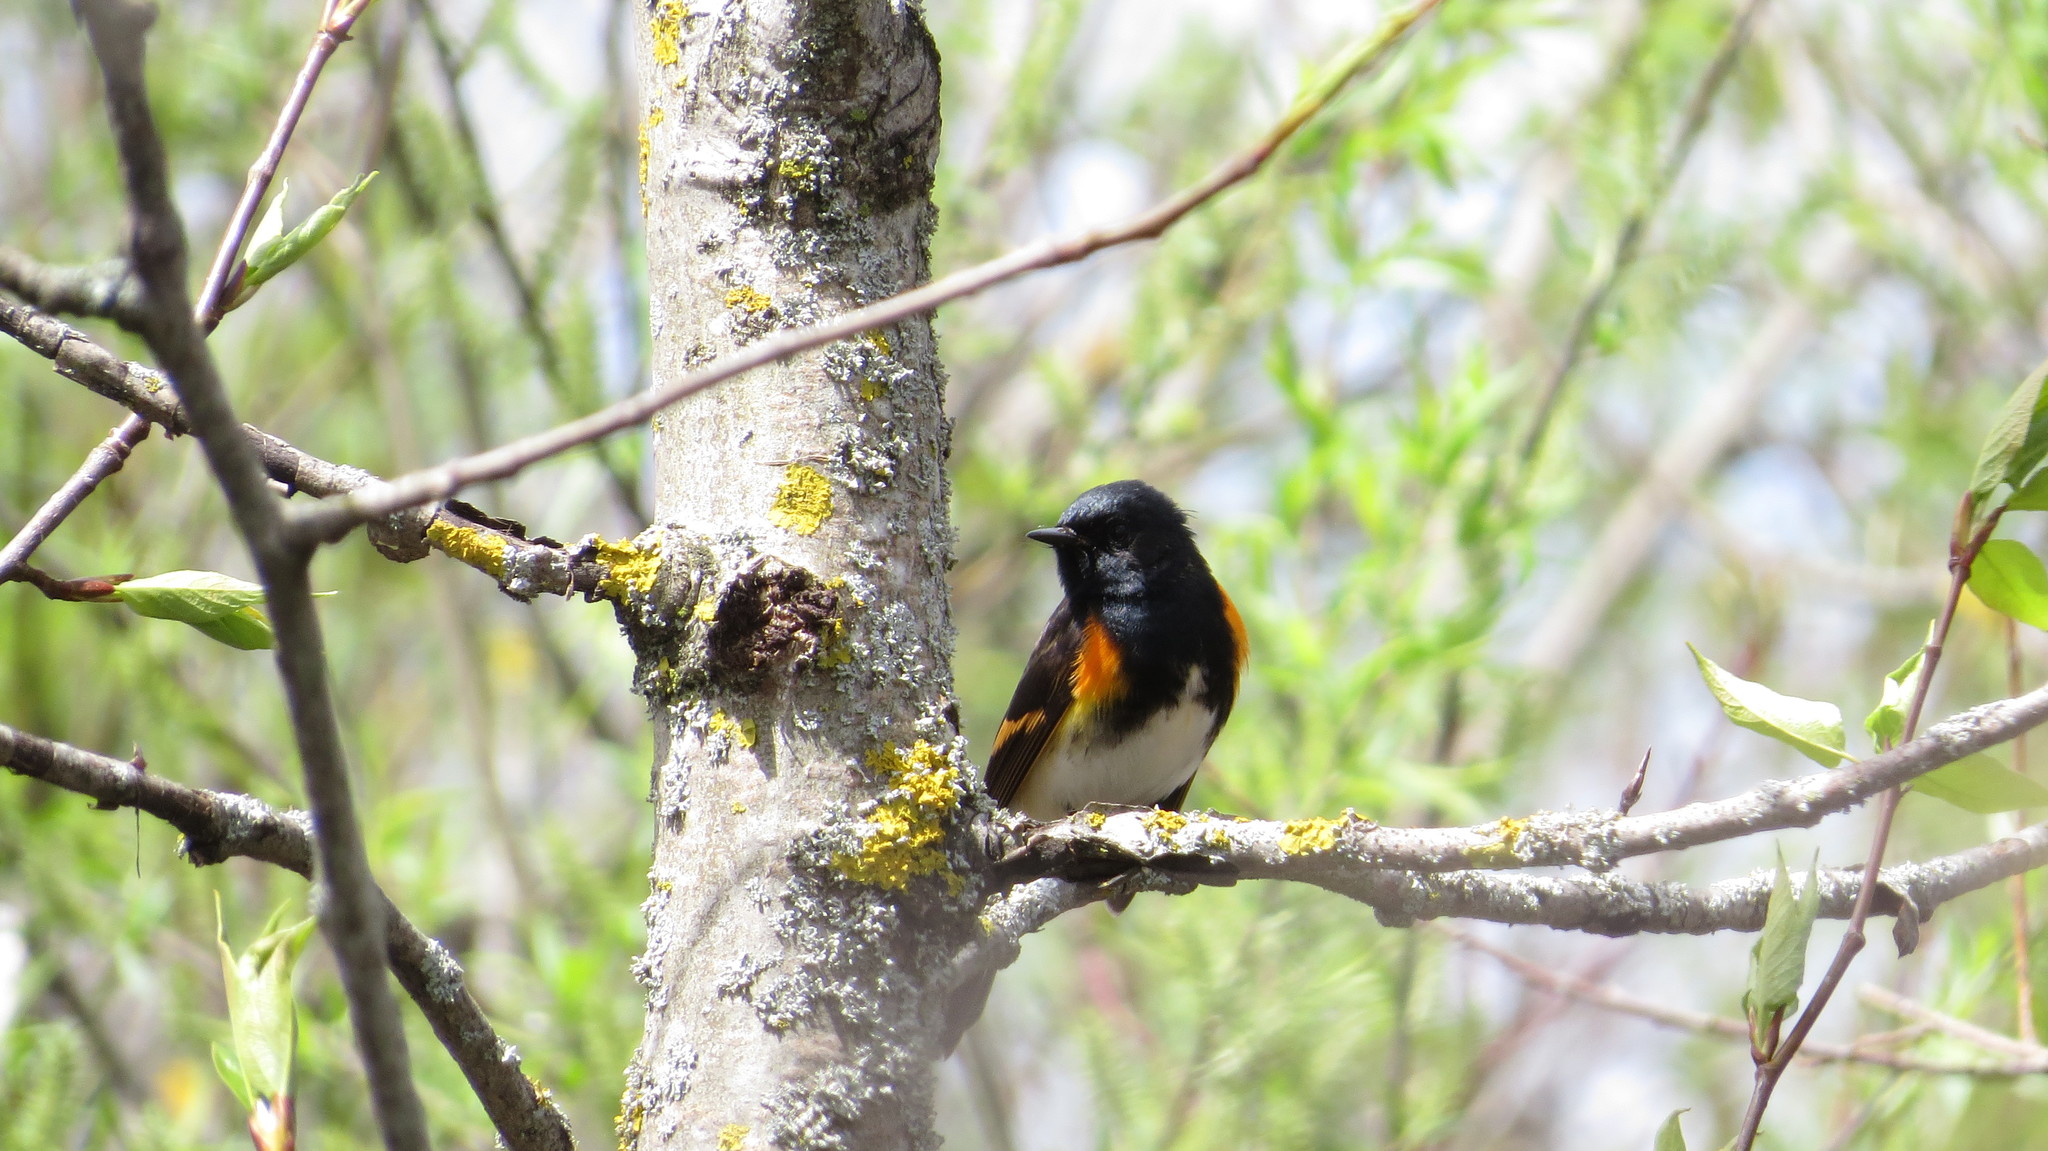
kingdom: Animalia
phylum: Chordata
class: Aves
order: Passeriformes
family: Parulidae
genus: Setophaga
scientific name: Setophaga ruticilla
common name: American redstart
